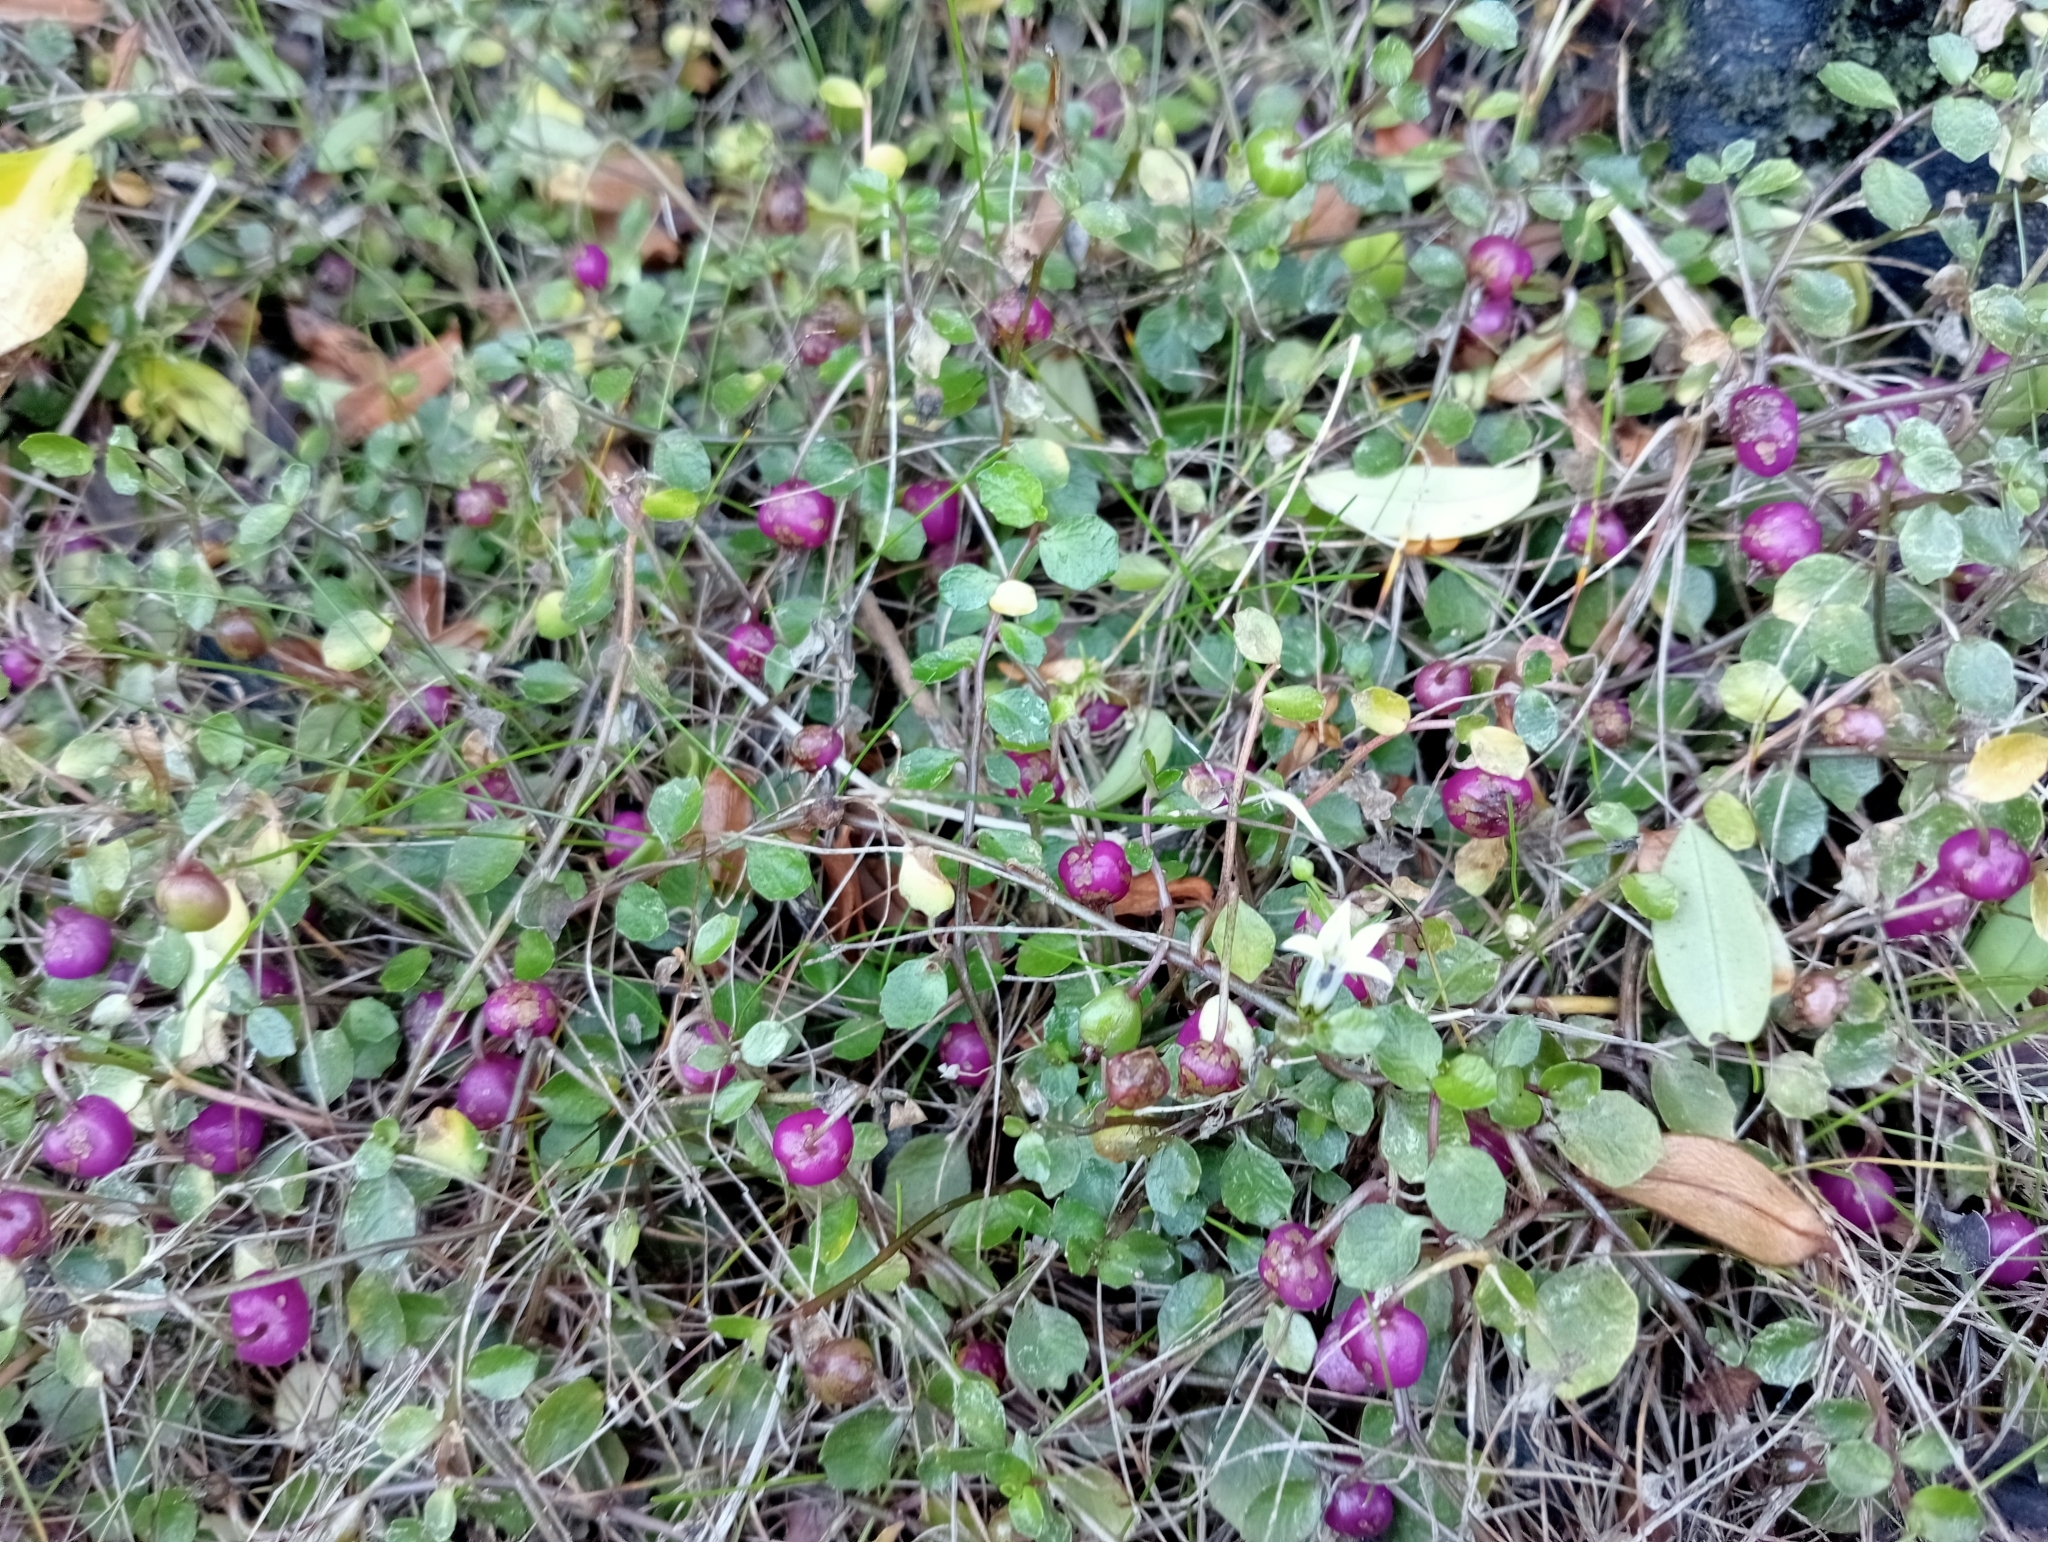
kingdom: Plantae
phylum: Tracheophyta
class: Magnoliopsida
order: Asterales
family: Campanulaceae
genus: Lobelia
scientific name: Lobelia angulata
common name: Lawn lobelia
